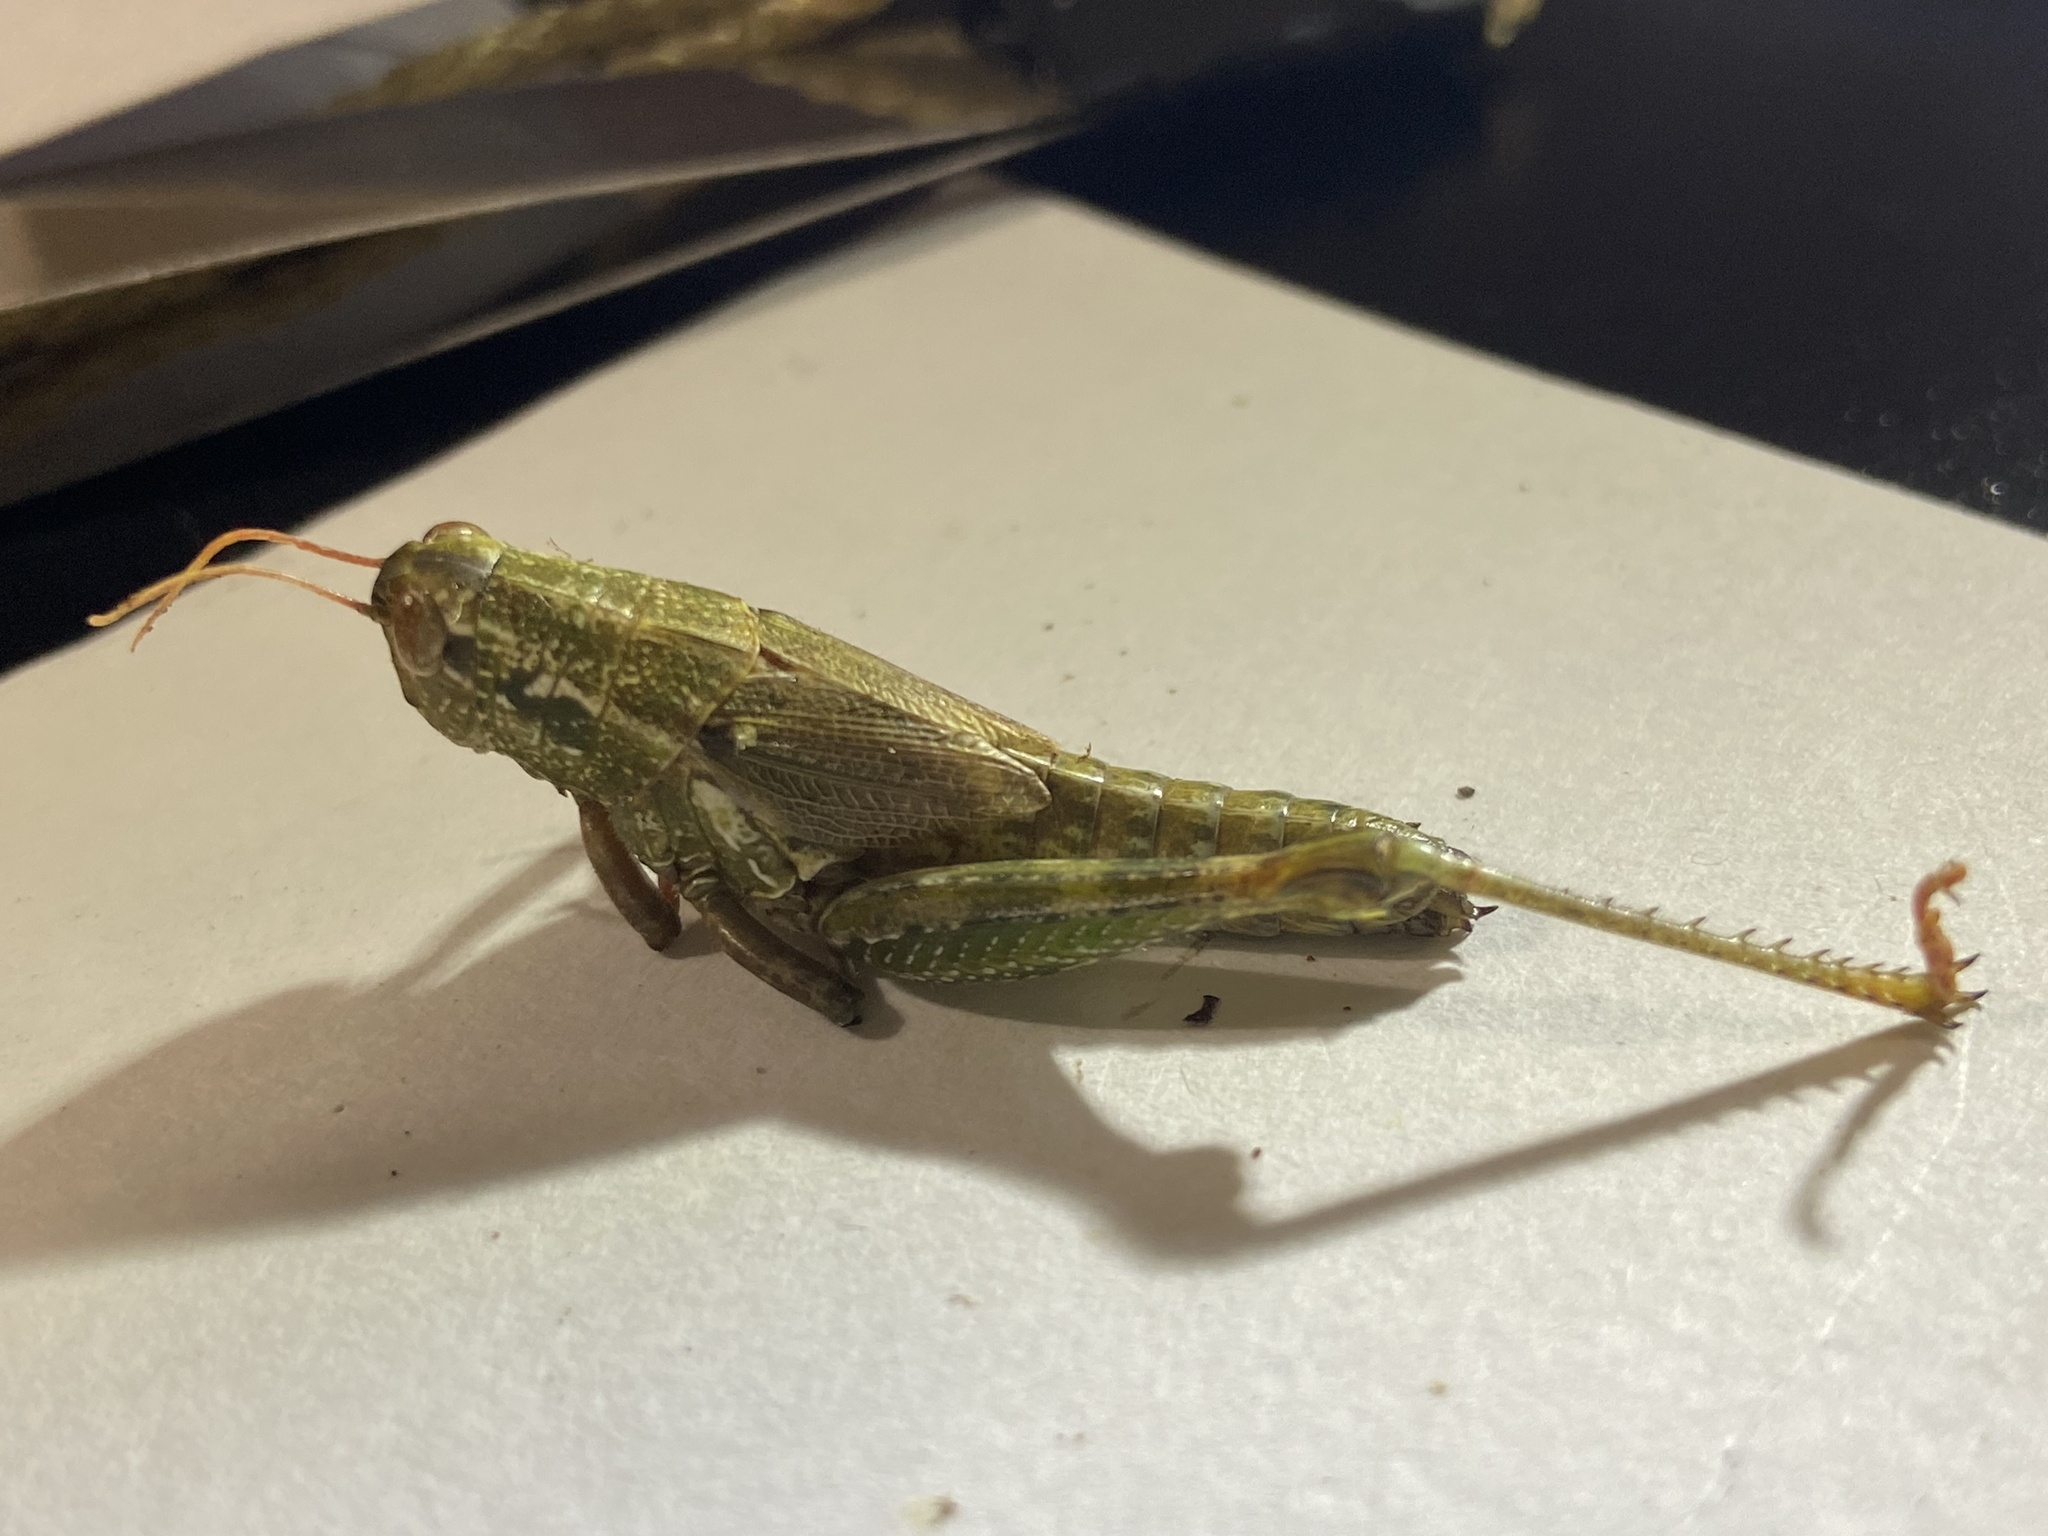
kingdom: Animalia
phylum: Arthropoda
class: Insecta
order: Orthoptera
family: Acrididae
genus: Campylacantha
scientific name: Campylacantha olivacea
